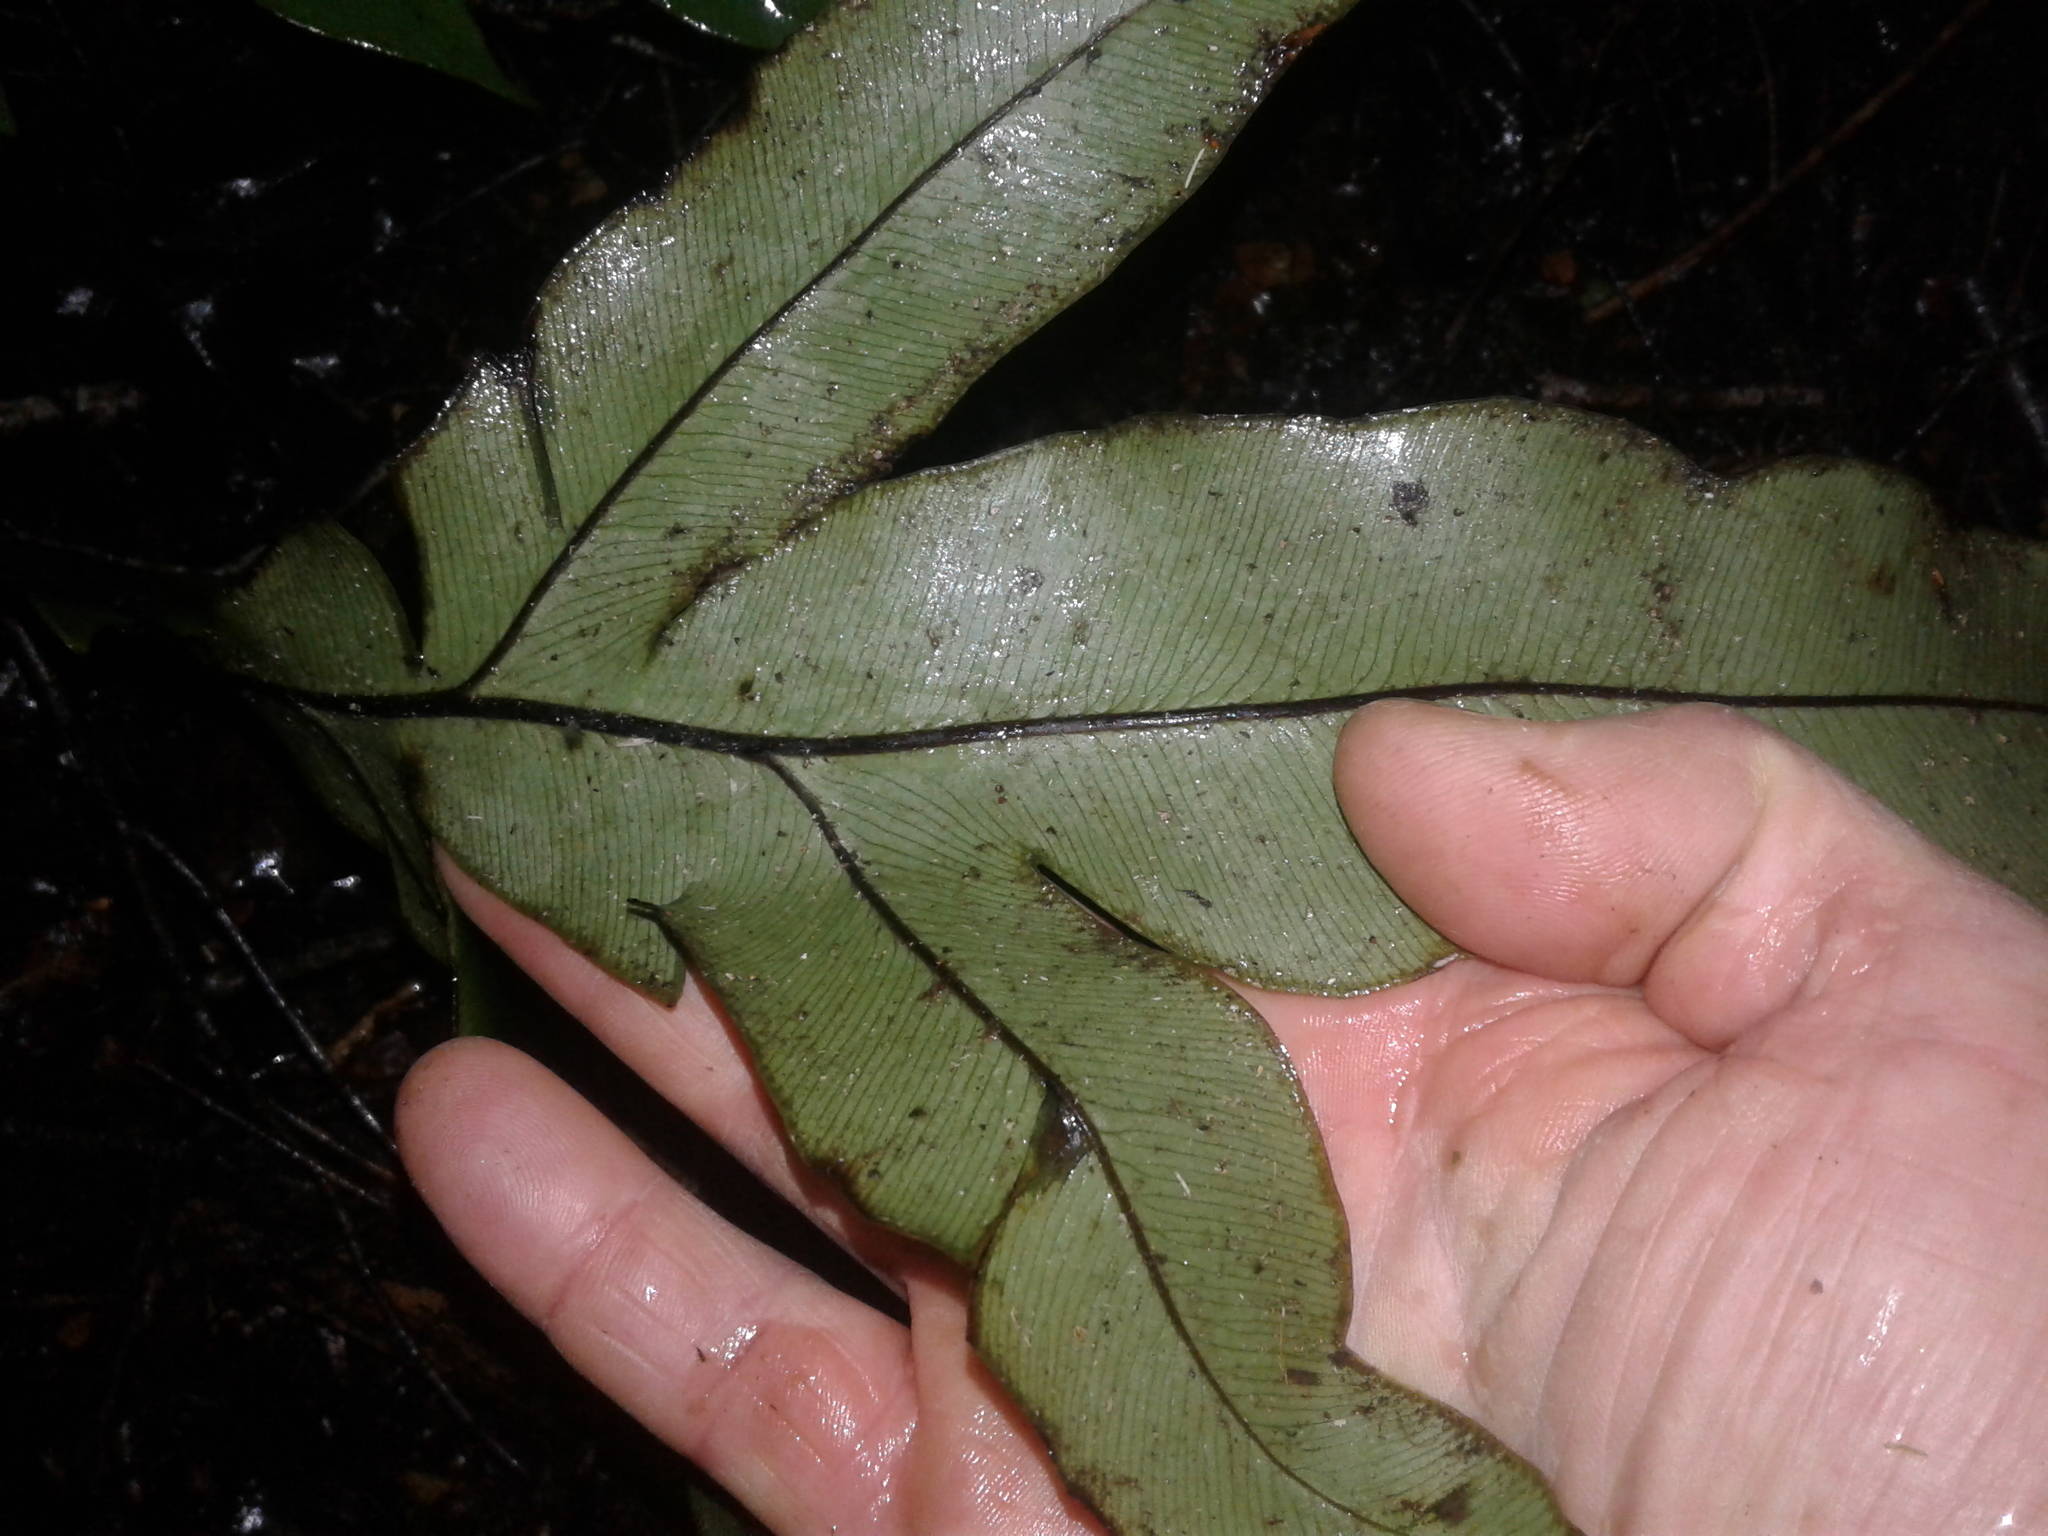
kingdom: Plantae
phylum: Tracheophyta
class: Polypodiopsida
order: Polypodiales
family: Blechnaceae
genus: Austroblechnum
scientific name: Austroblechnum colensoi
